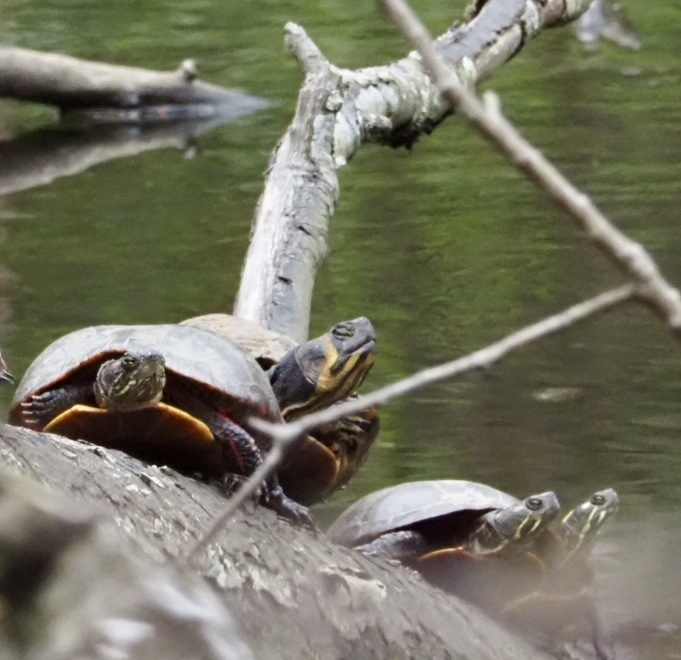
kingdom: Animalia
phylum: Chordata
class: Testudines
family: Emydidae
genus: Trachemys
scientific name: Trachemys scripta
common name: Slider
